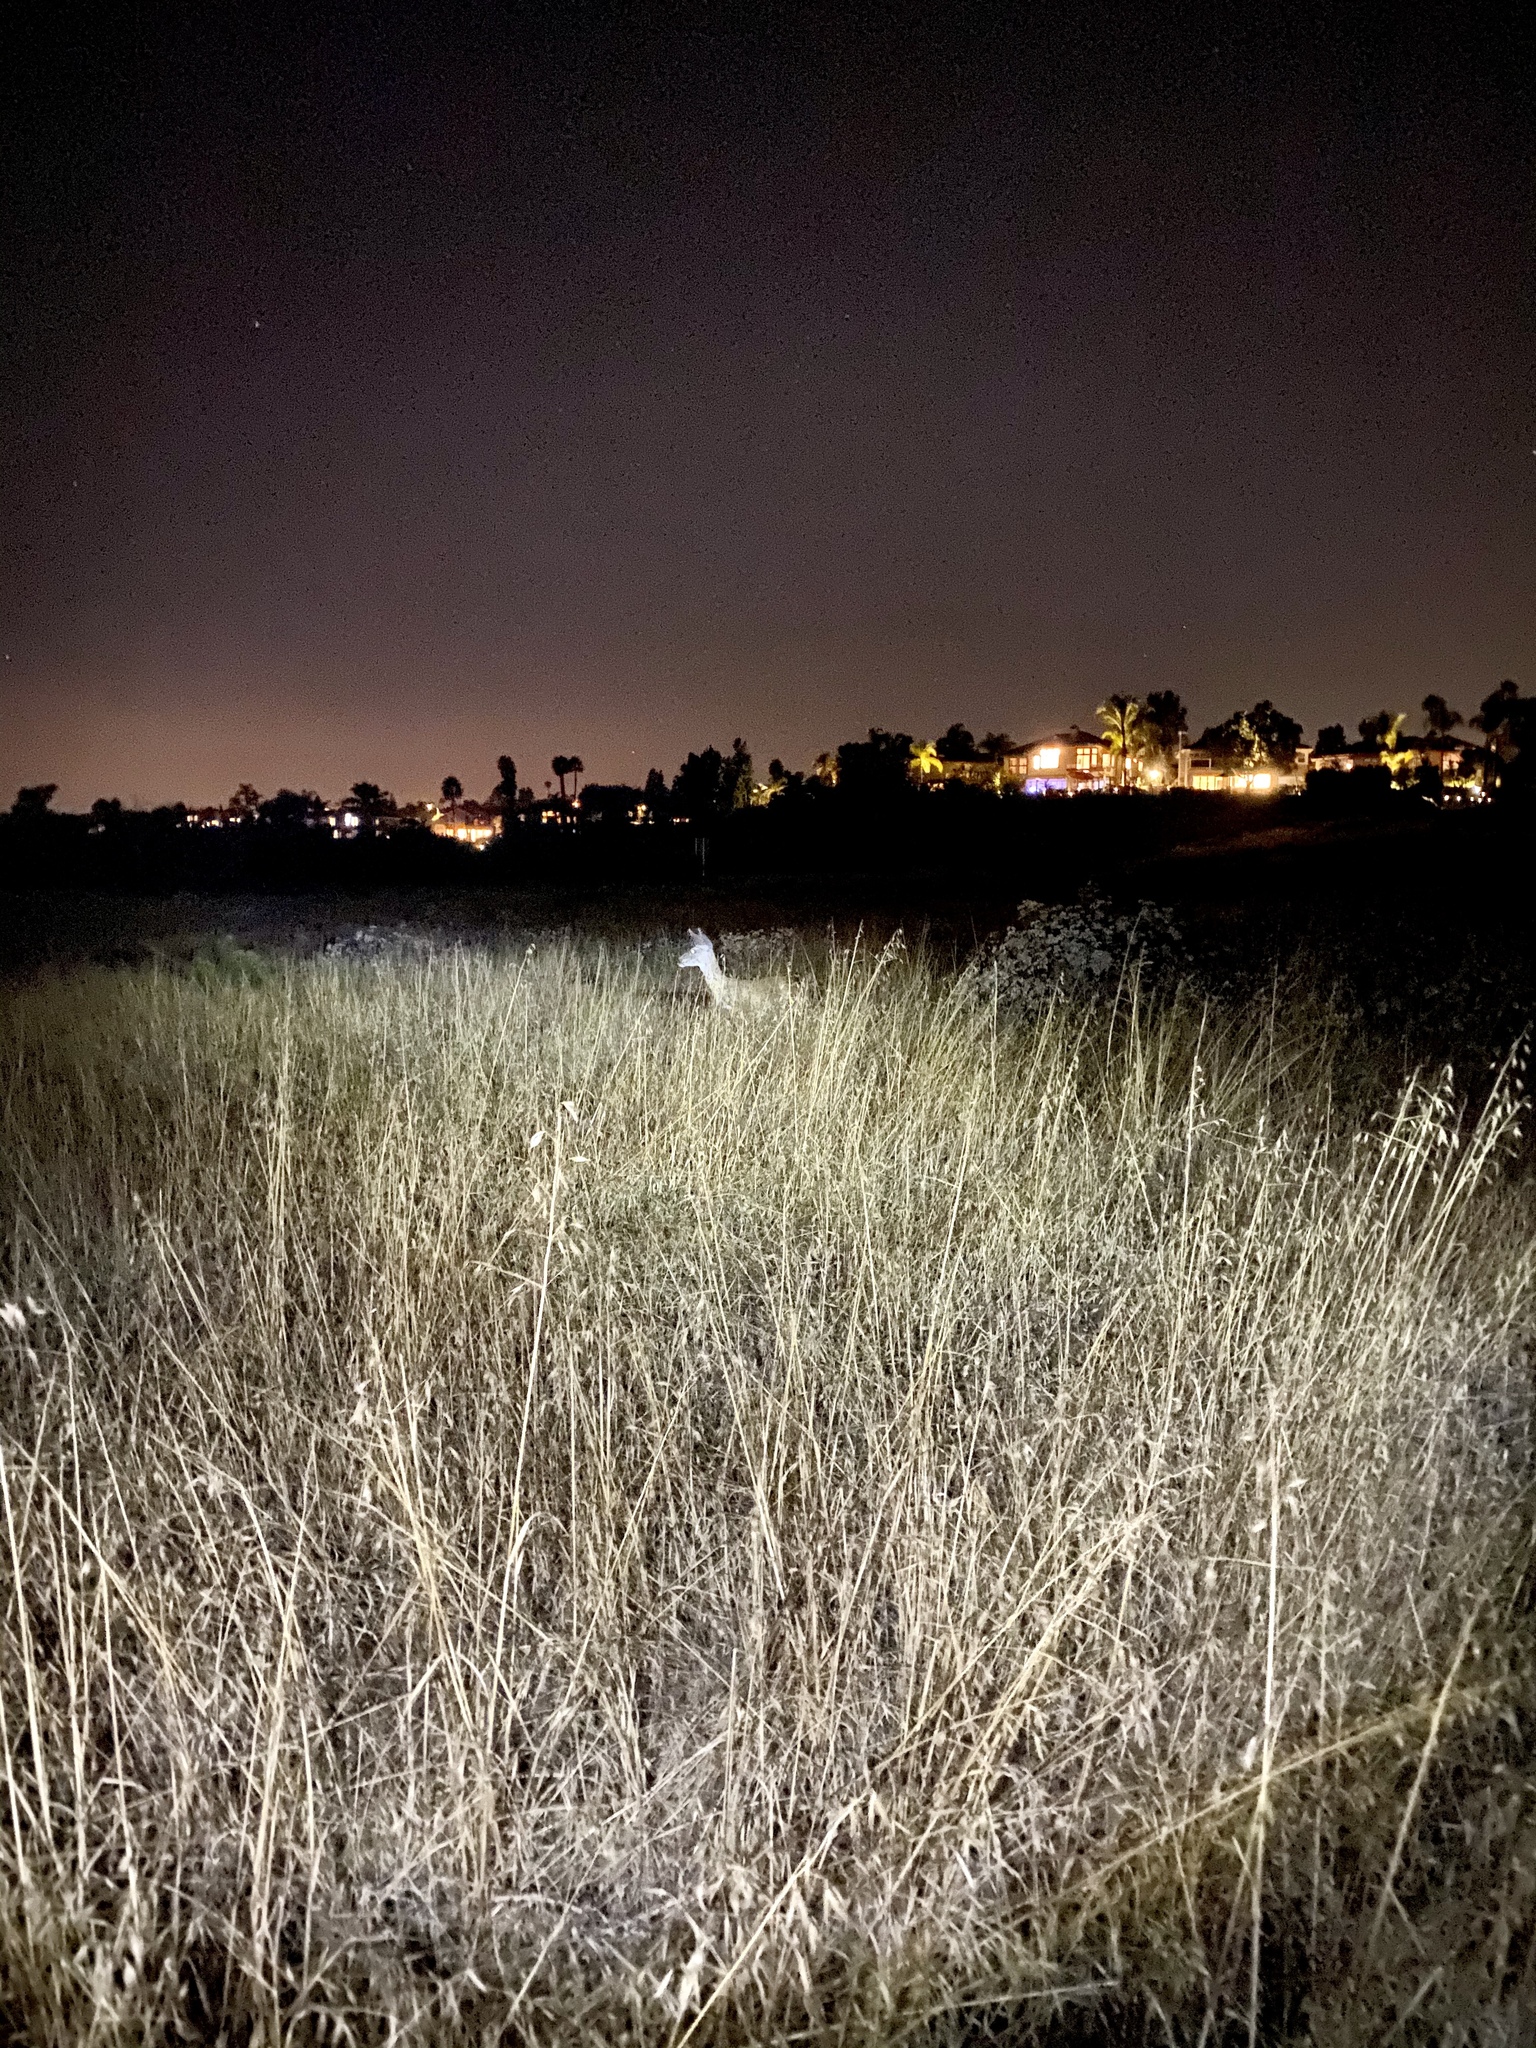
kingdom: Animalia
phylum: Chordata
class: Mammalia
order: Artiodactyla
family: Cervidae
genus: Odocoileus
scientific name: Odocoileus hemionus
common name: Mule deer
